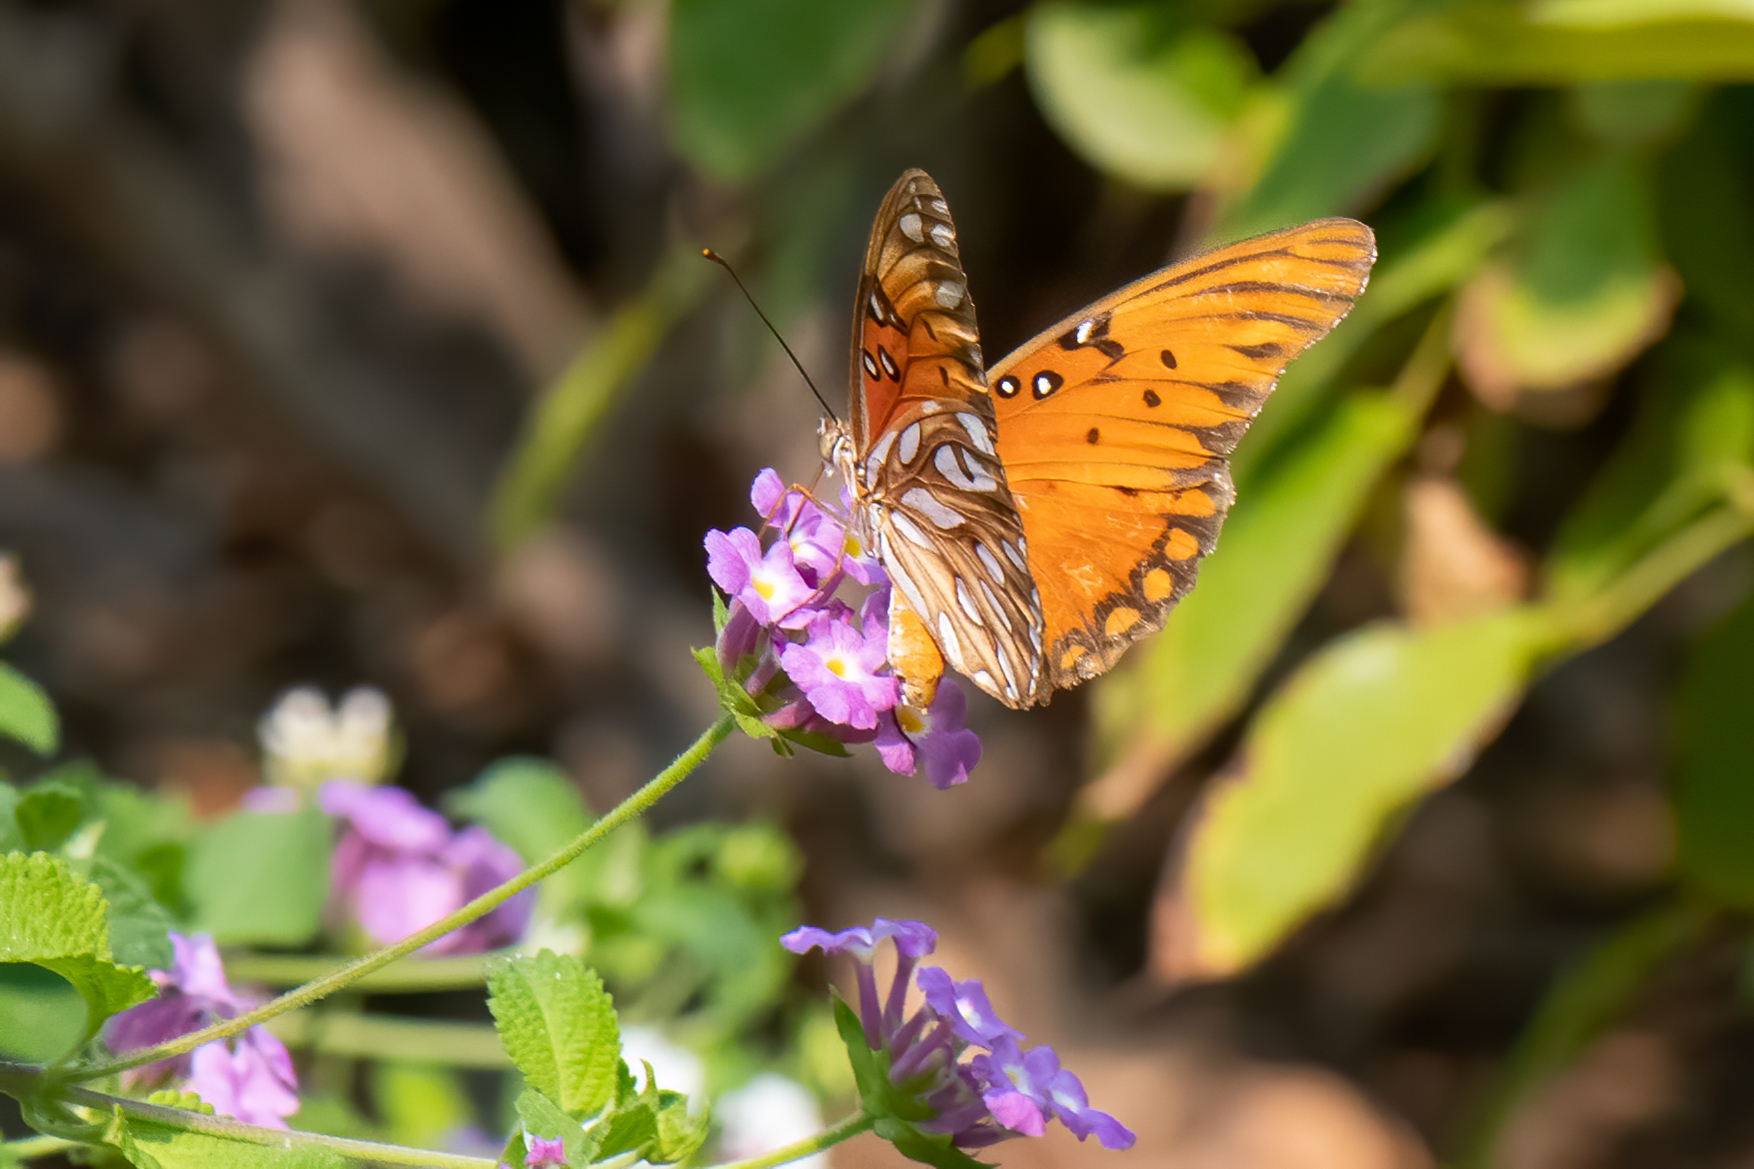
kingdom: Animalia
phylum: Arthropoda
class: Insecta
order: Lepidoptera
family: Nymphalidae
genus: Dione
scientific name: Dione vanillae
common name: Gulf fritillary
